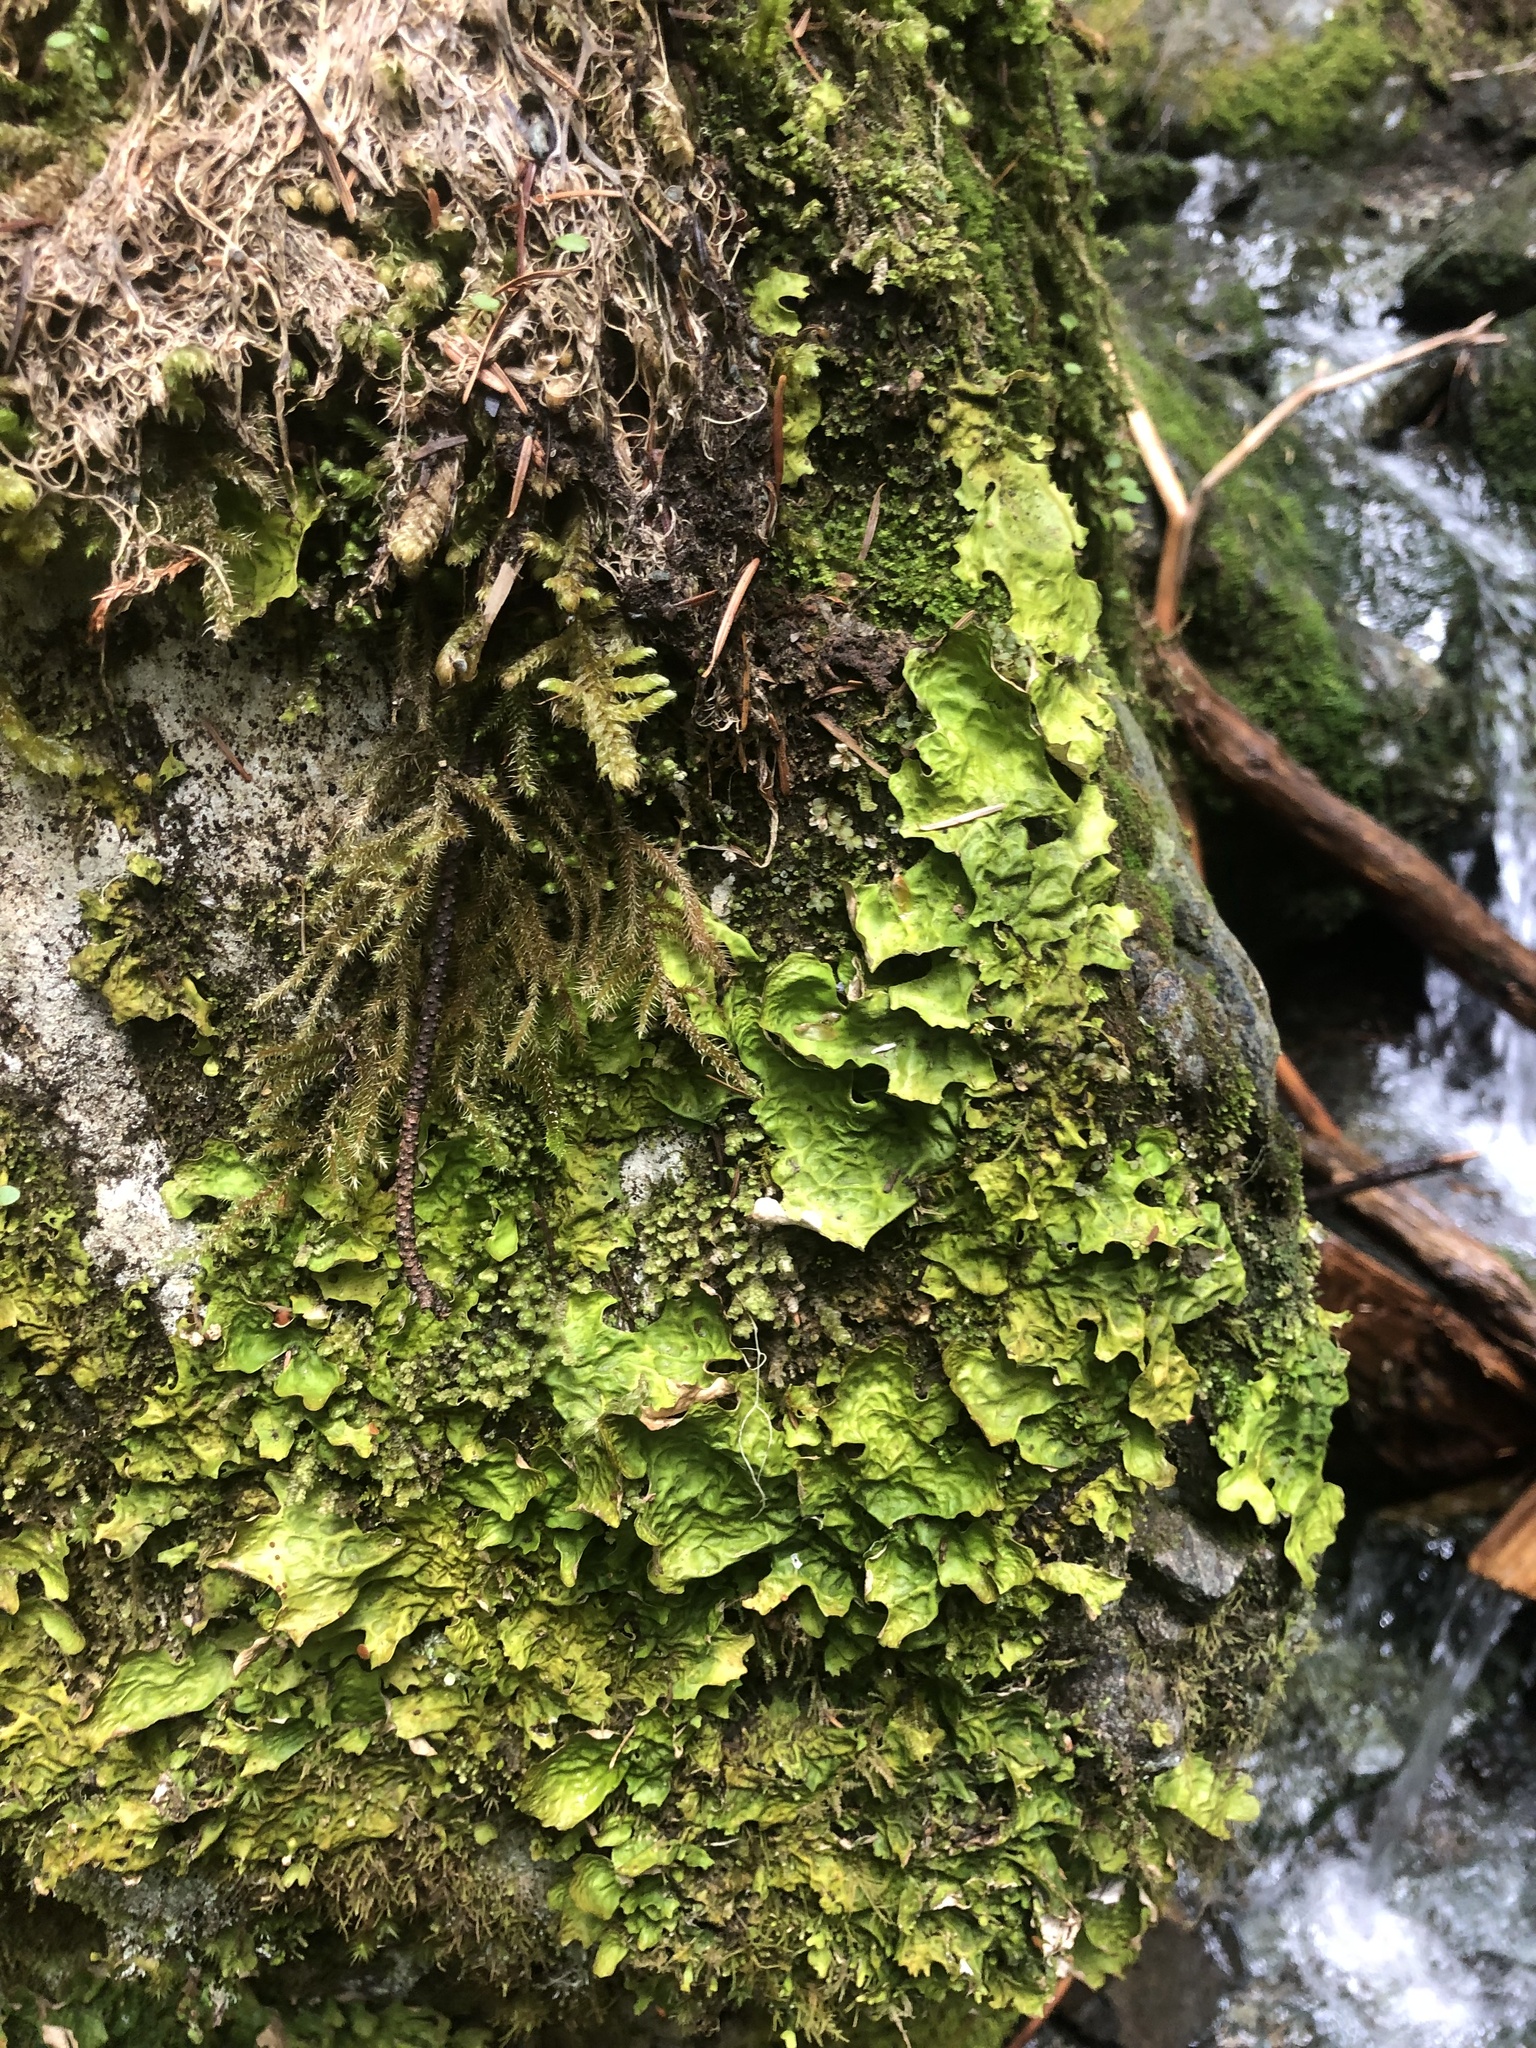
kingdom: Fungi
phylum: Ascomycota
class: Lecanoromycetes
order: Peltigerales
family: Lobariaceae
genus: Lobaria
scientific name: Lobaria linita
